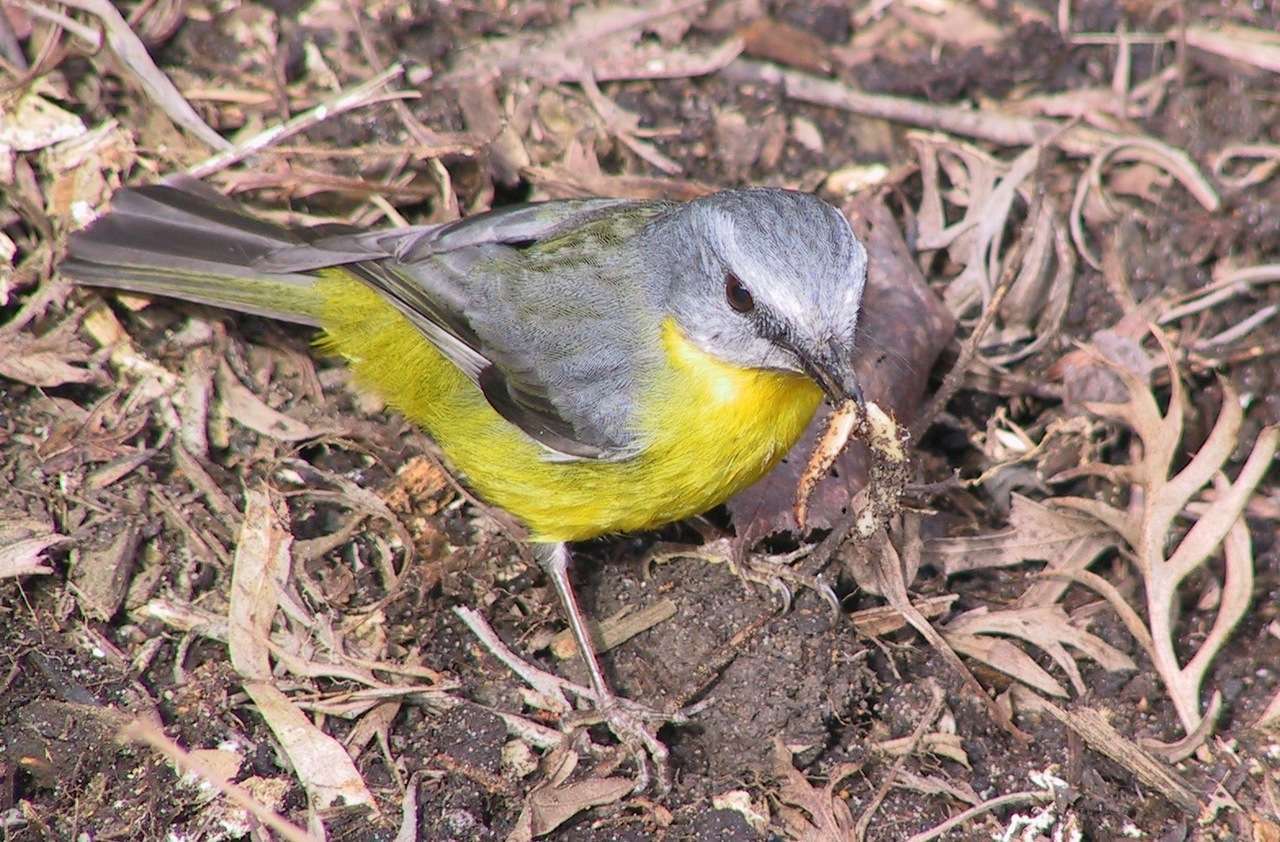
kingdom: Animalia
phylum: Chordata
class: Aves
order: Passeriformes
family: Petroicidae
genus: Eopsaltria
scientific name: Eopsaltria australis
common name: Eastern yellow robin
